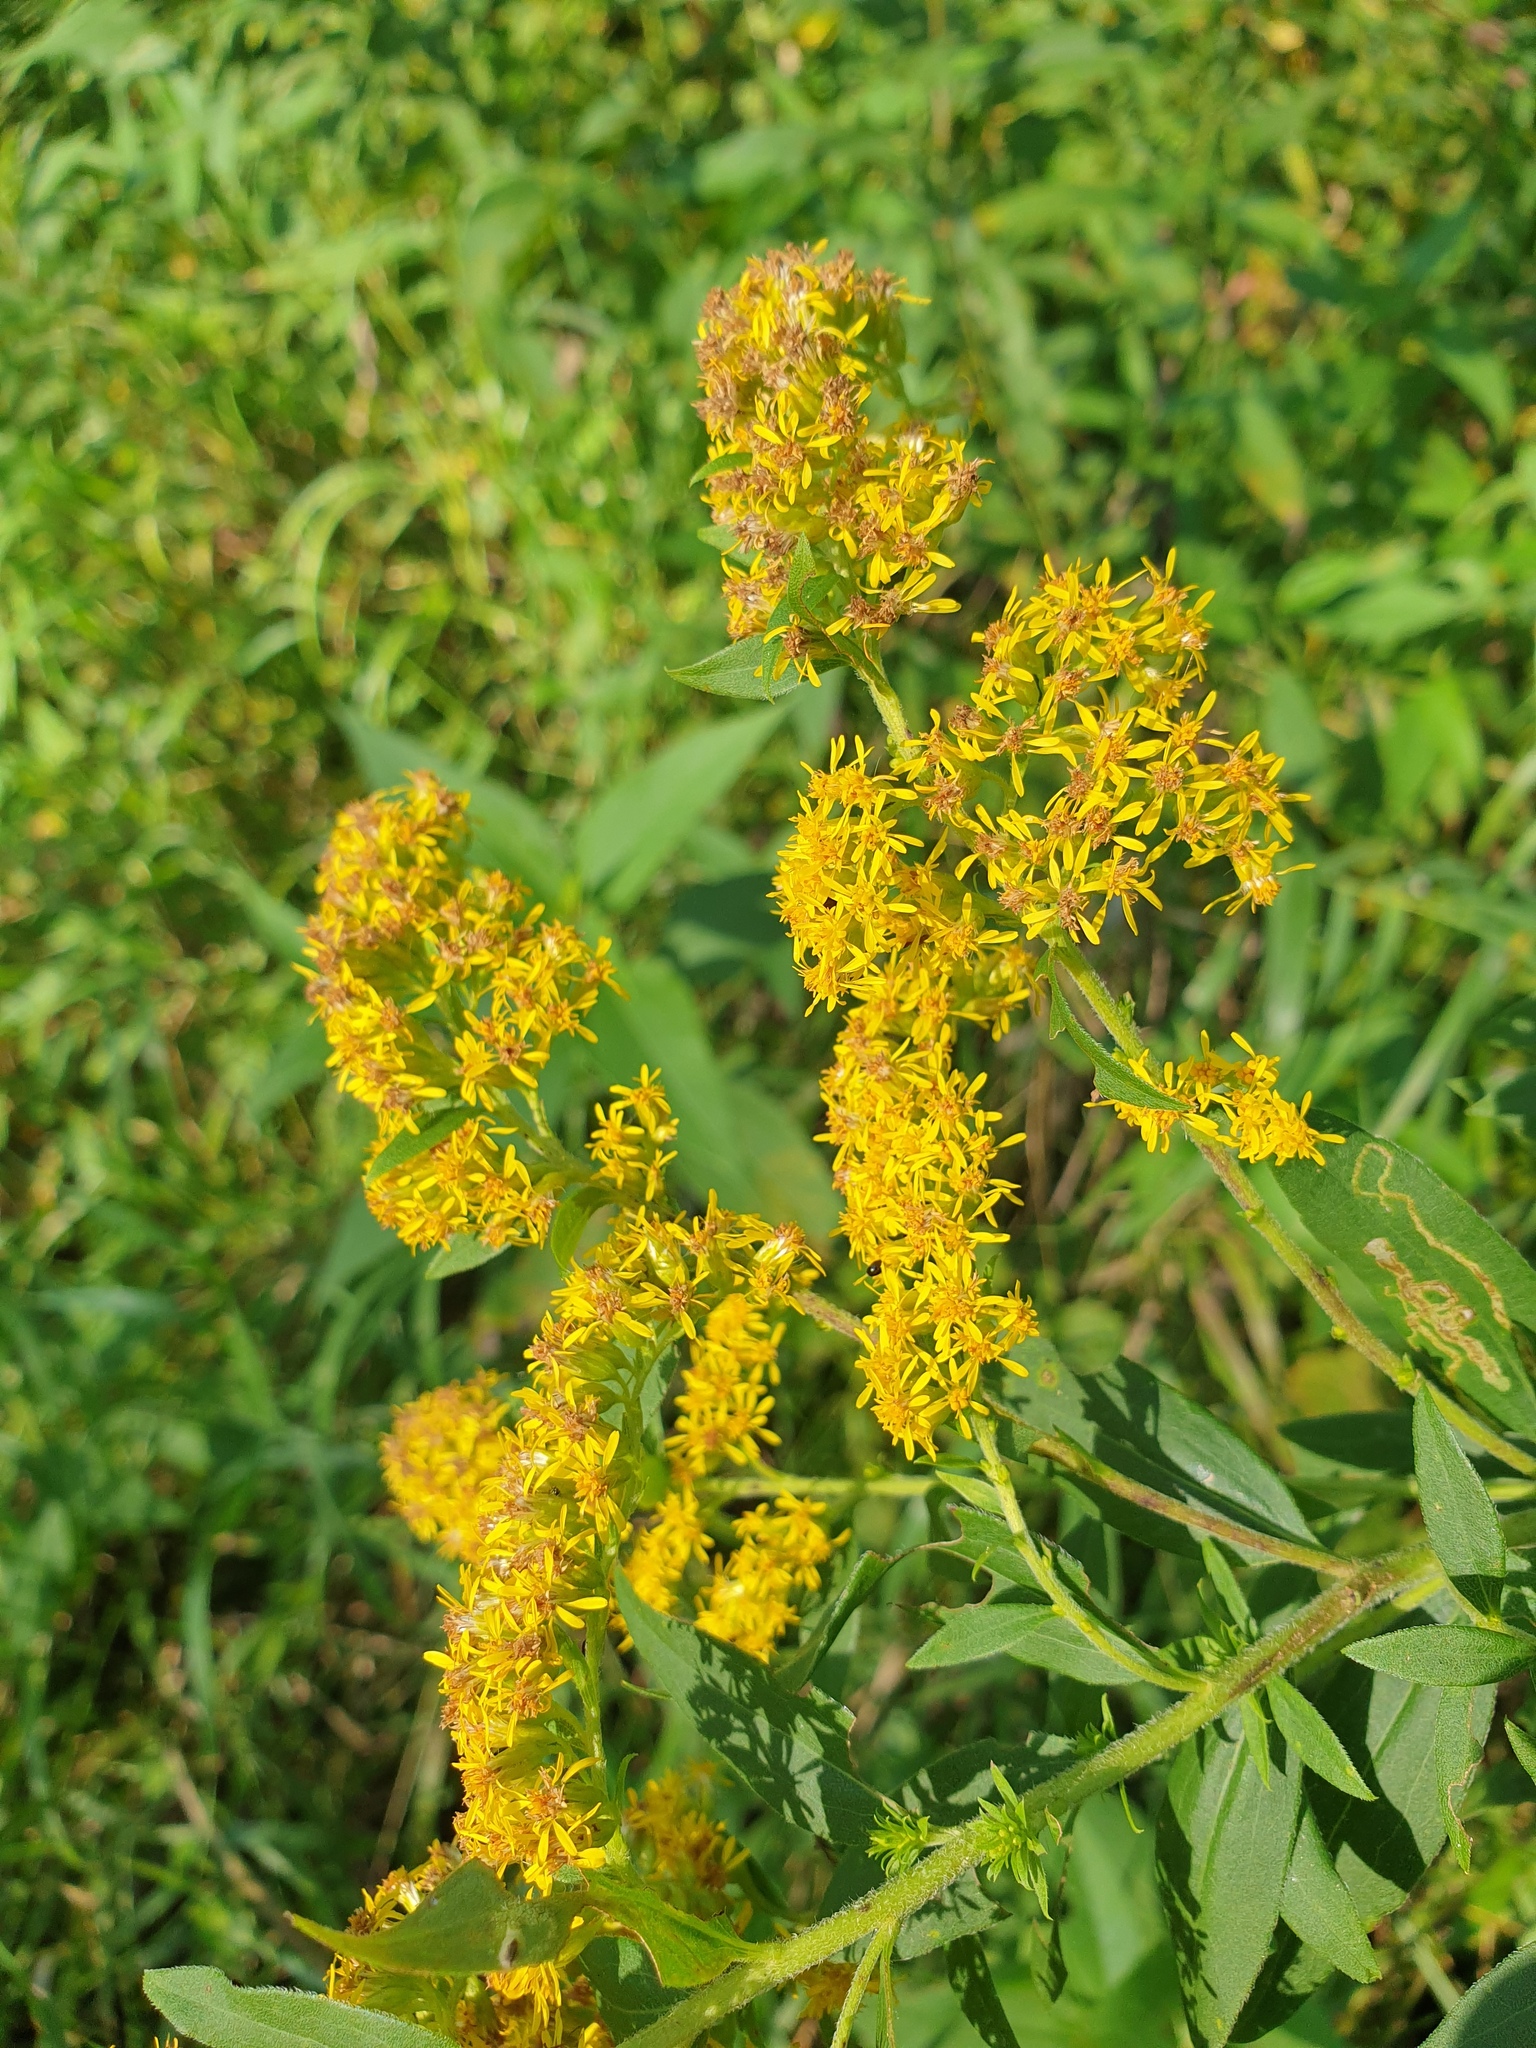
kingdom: Plantae
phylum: Tracheophyta
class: Magnoliopsida
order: Asterales
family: Asteraceae
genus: Solidago
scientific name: Solidago gigantea
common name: Giant goldenrod
